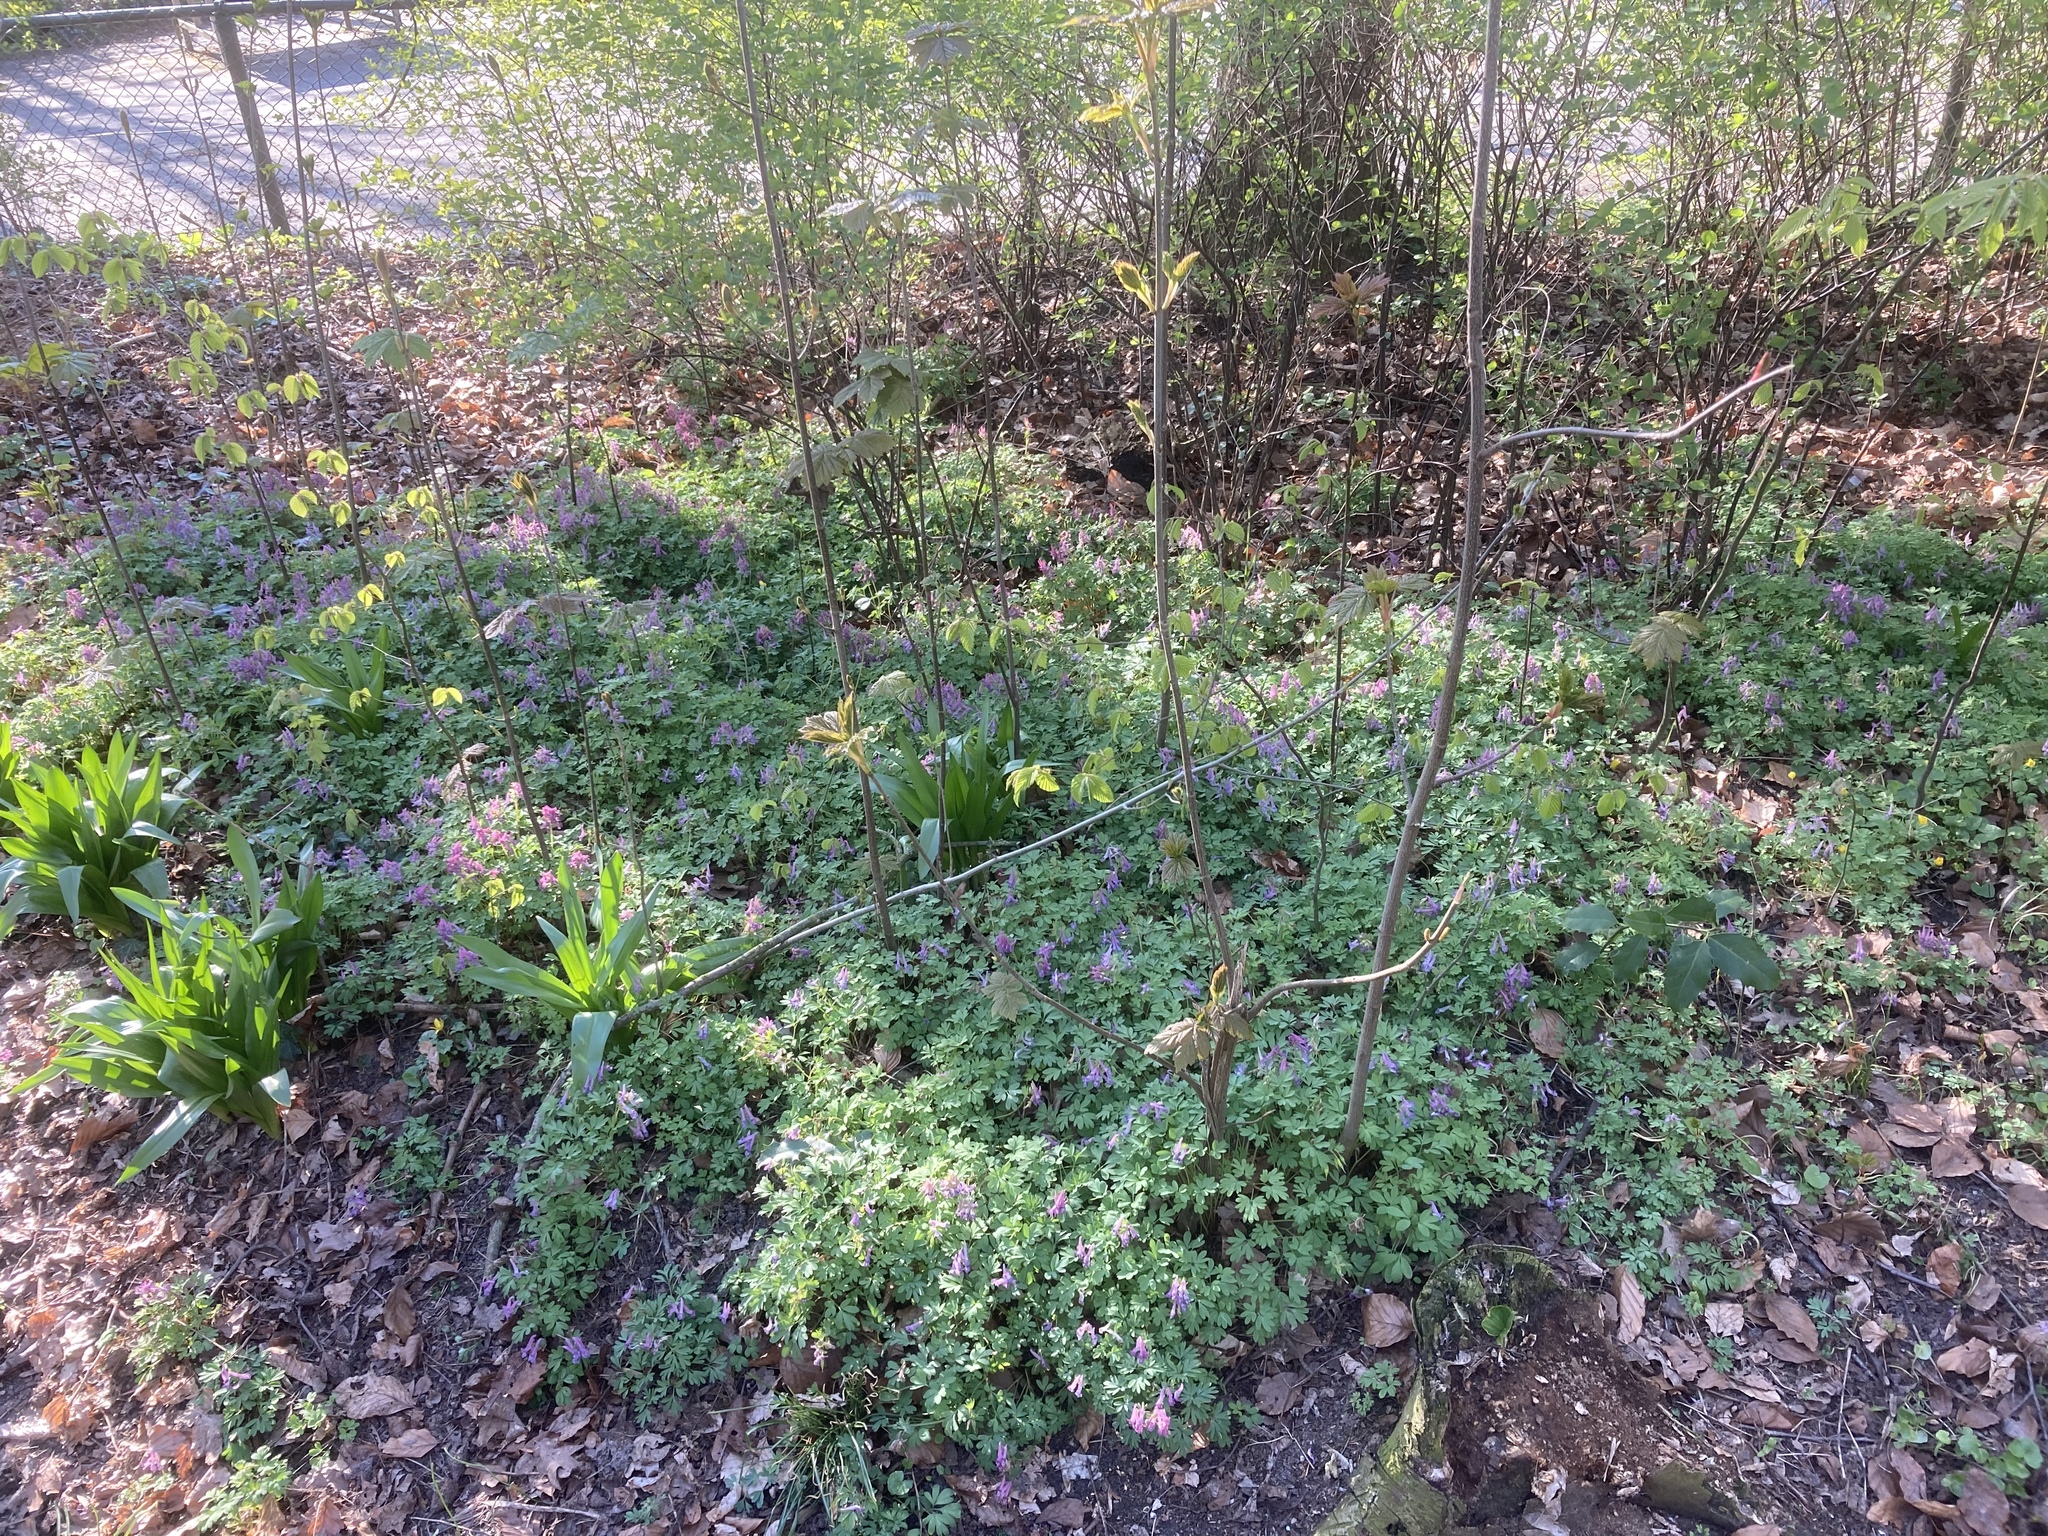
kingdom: Plantae
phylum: Tracheophyta
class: Magnoliopsida
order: Ranunculales
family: Papaveraceae
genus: Corydalis
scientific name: Corydalis solida
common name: Bird-in-a-bush
